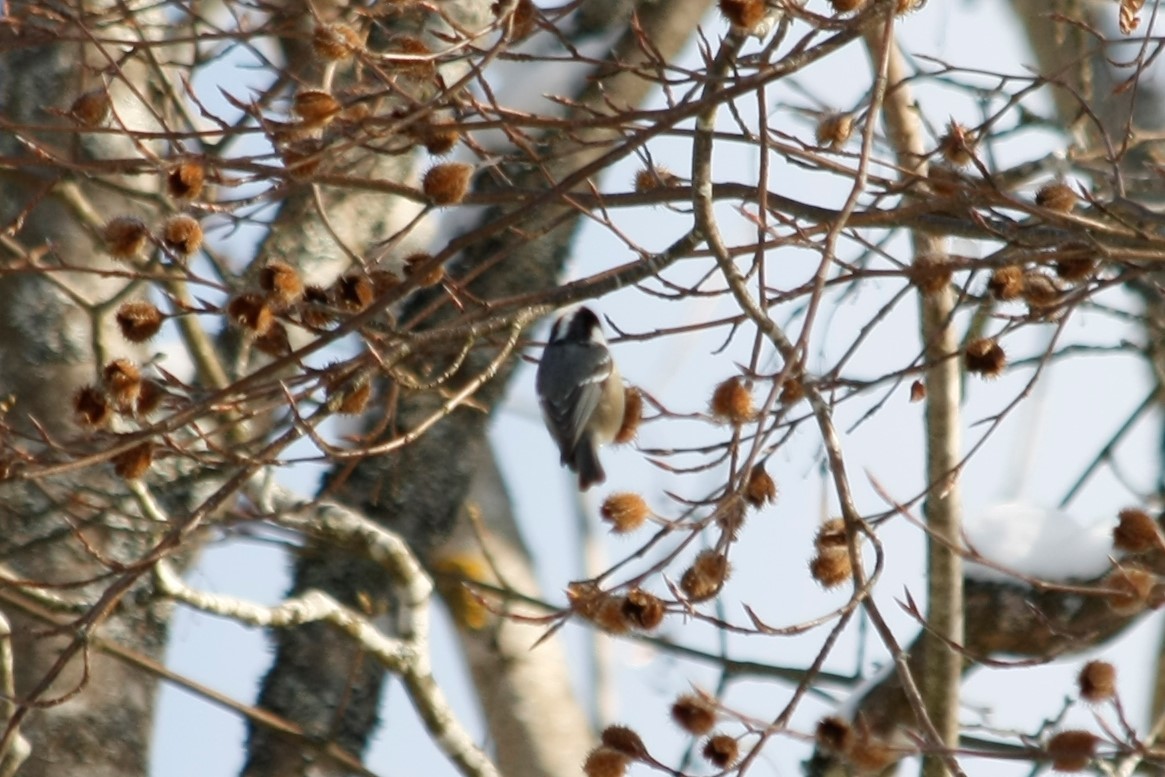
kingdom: Animalia
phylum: Chordata
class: Aves
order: Passeriformes
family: Paridae
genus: Periparus
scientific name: Periparus ater
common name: Coal tit
